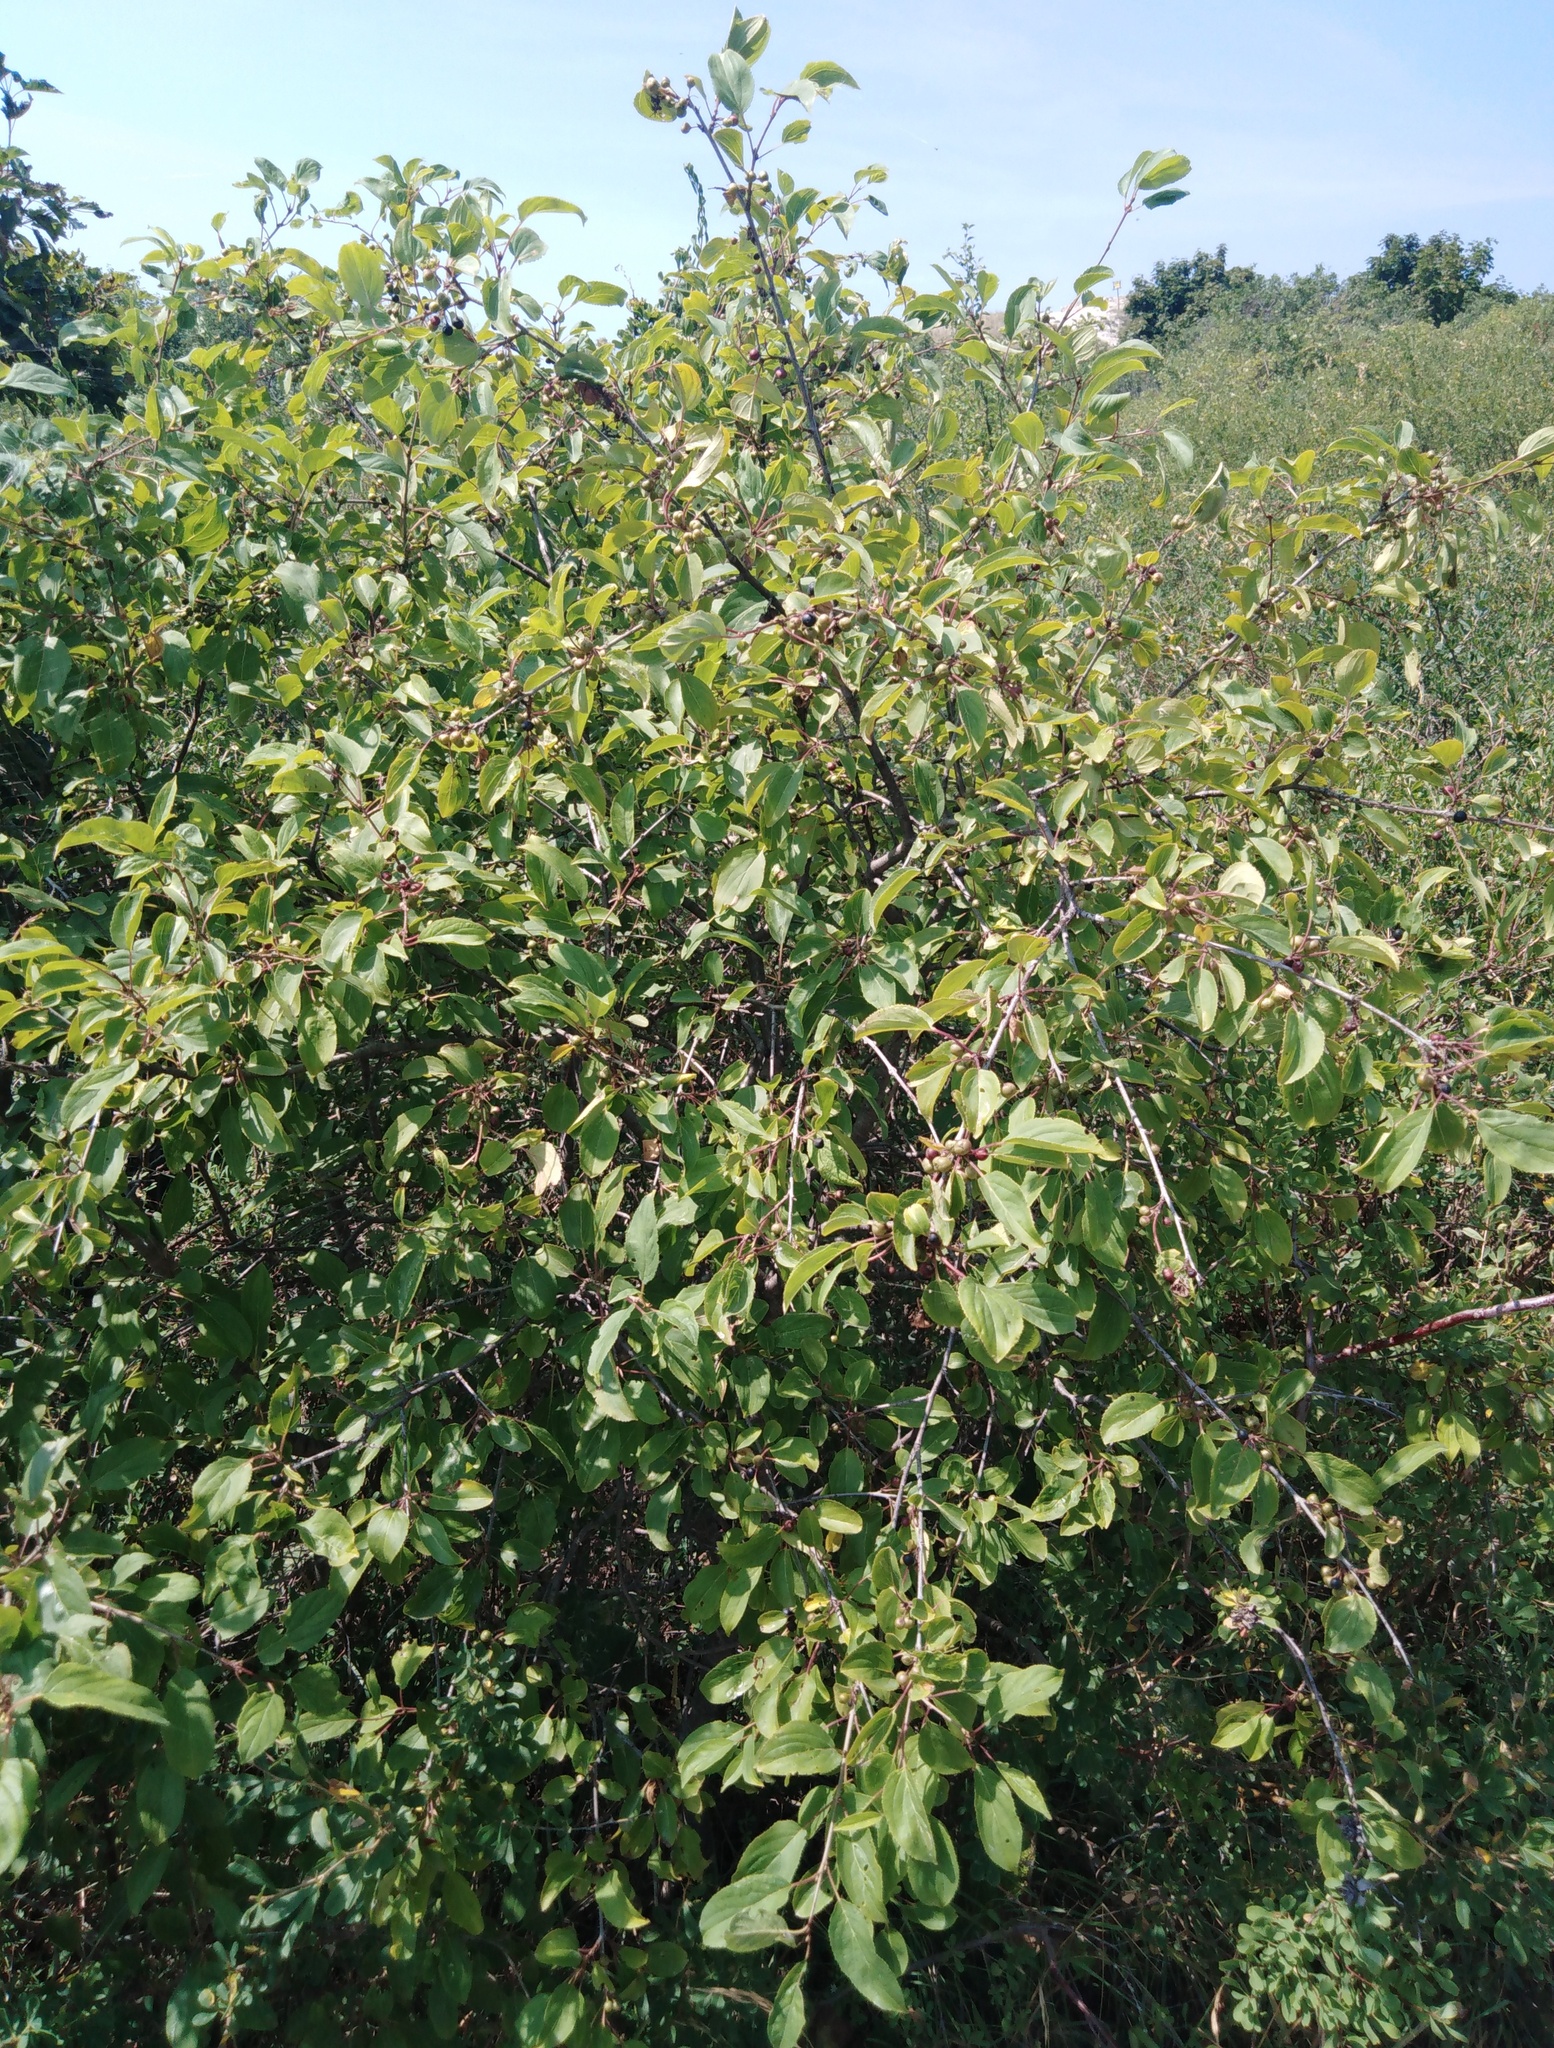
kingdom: Plantae
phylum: Tracheophyta
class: Magnoliopsida
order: Rosales
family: Rhamnaceae
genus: Rhamnus
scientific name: Rhamnus cathartica
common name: Common buckthorn
